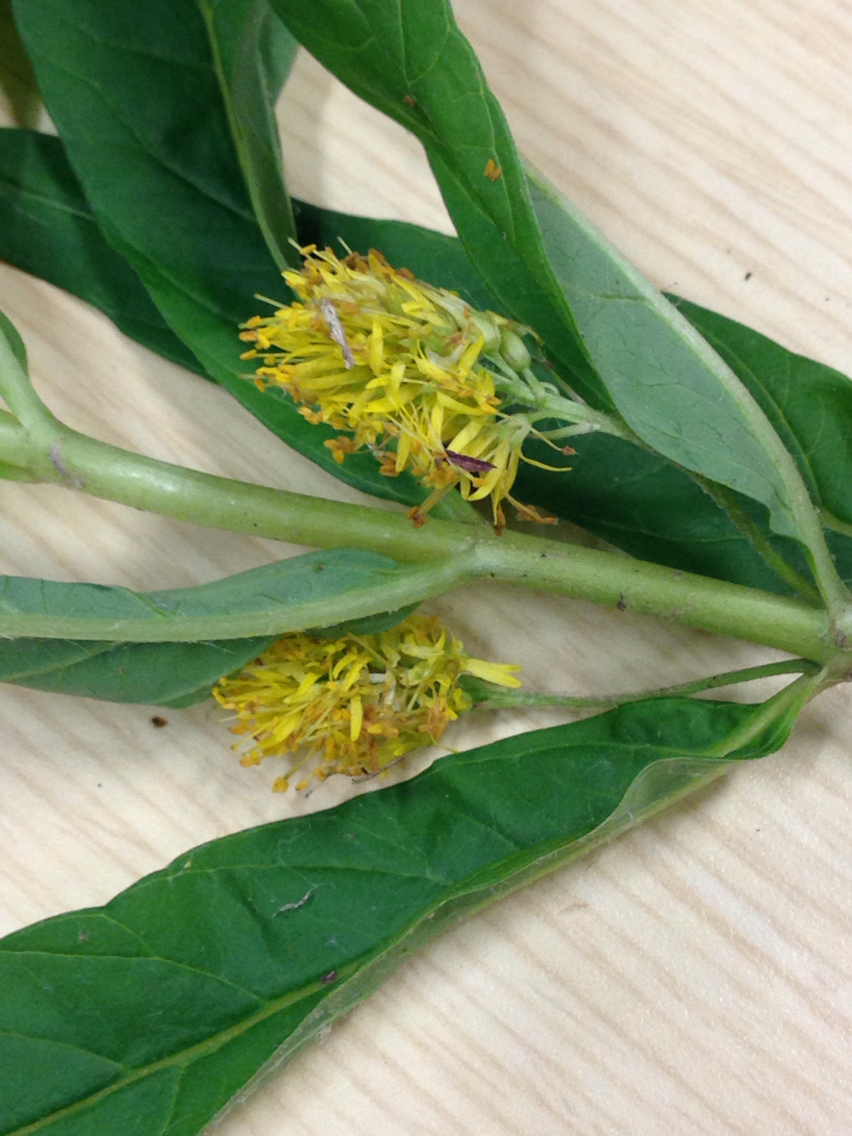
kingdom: Plantae
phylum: Tracheophyta
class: Magnoliopsida
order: Ericales
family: Primulaceae
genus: Lysimachia
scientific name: Lysimachia thyrsiflora
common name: Tufted loosestrife
